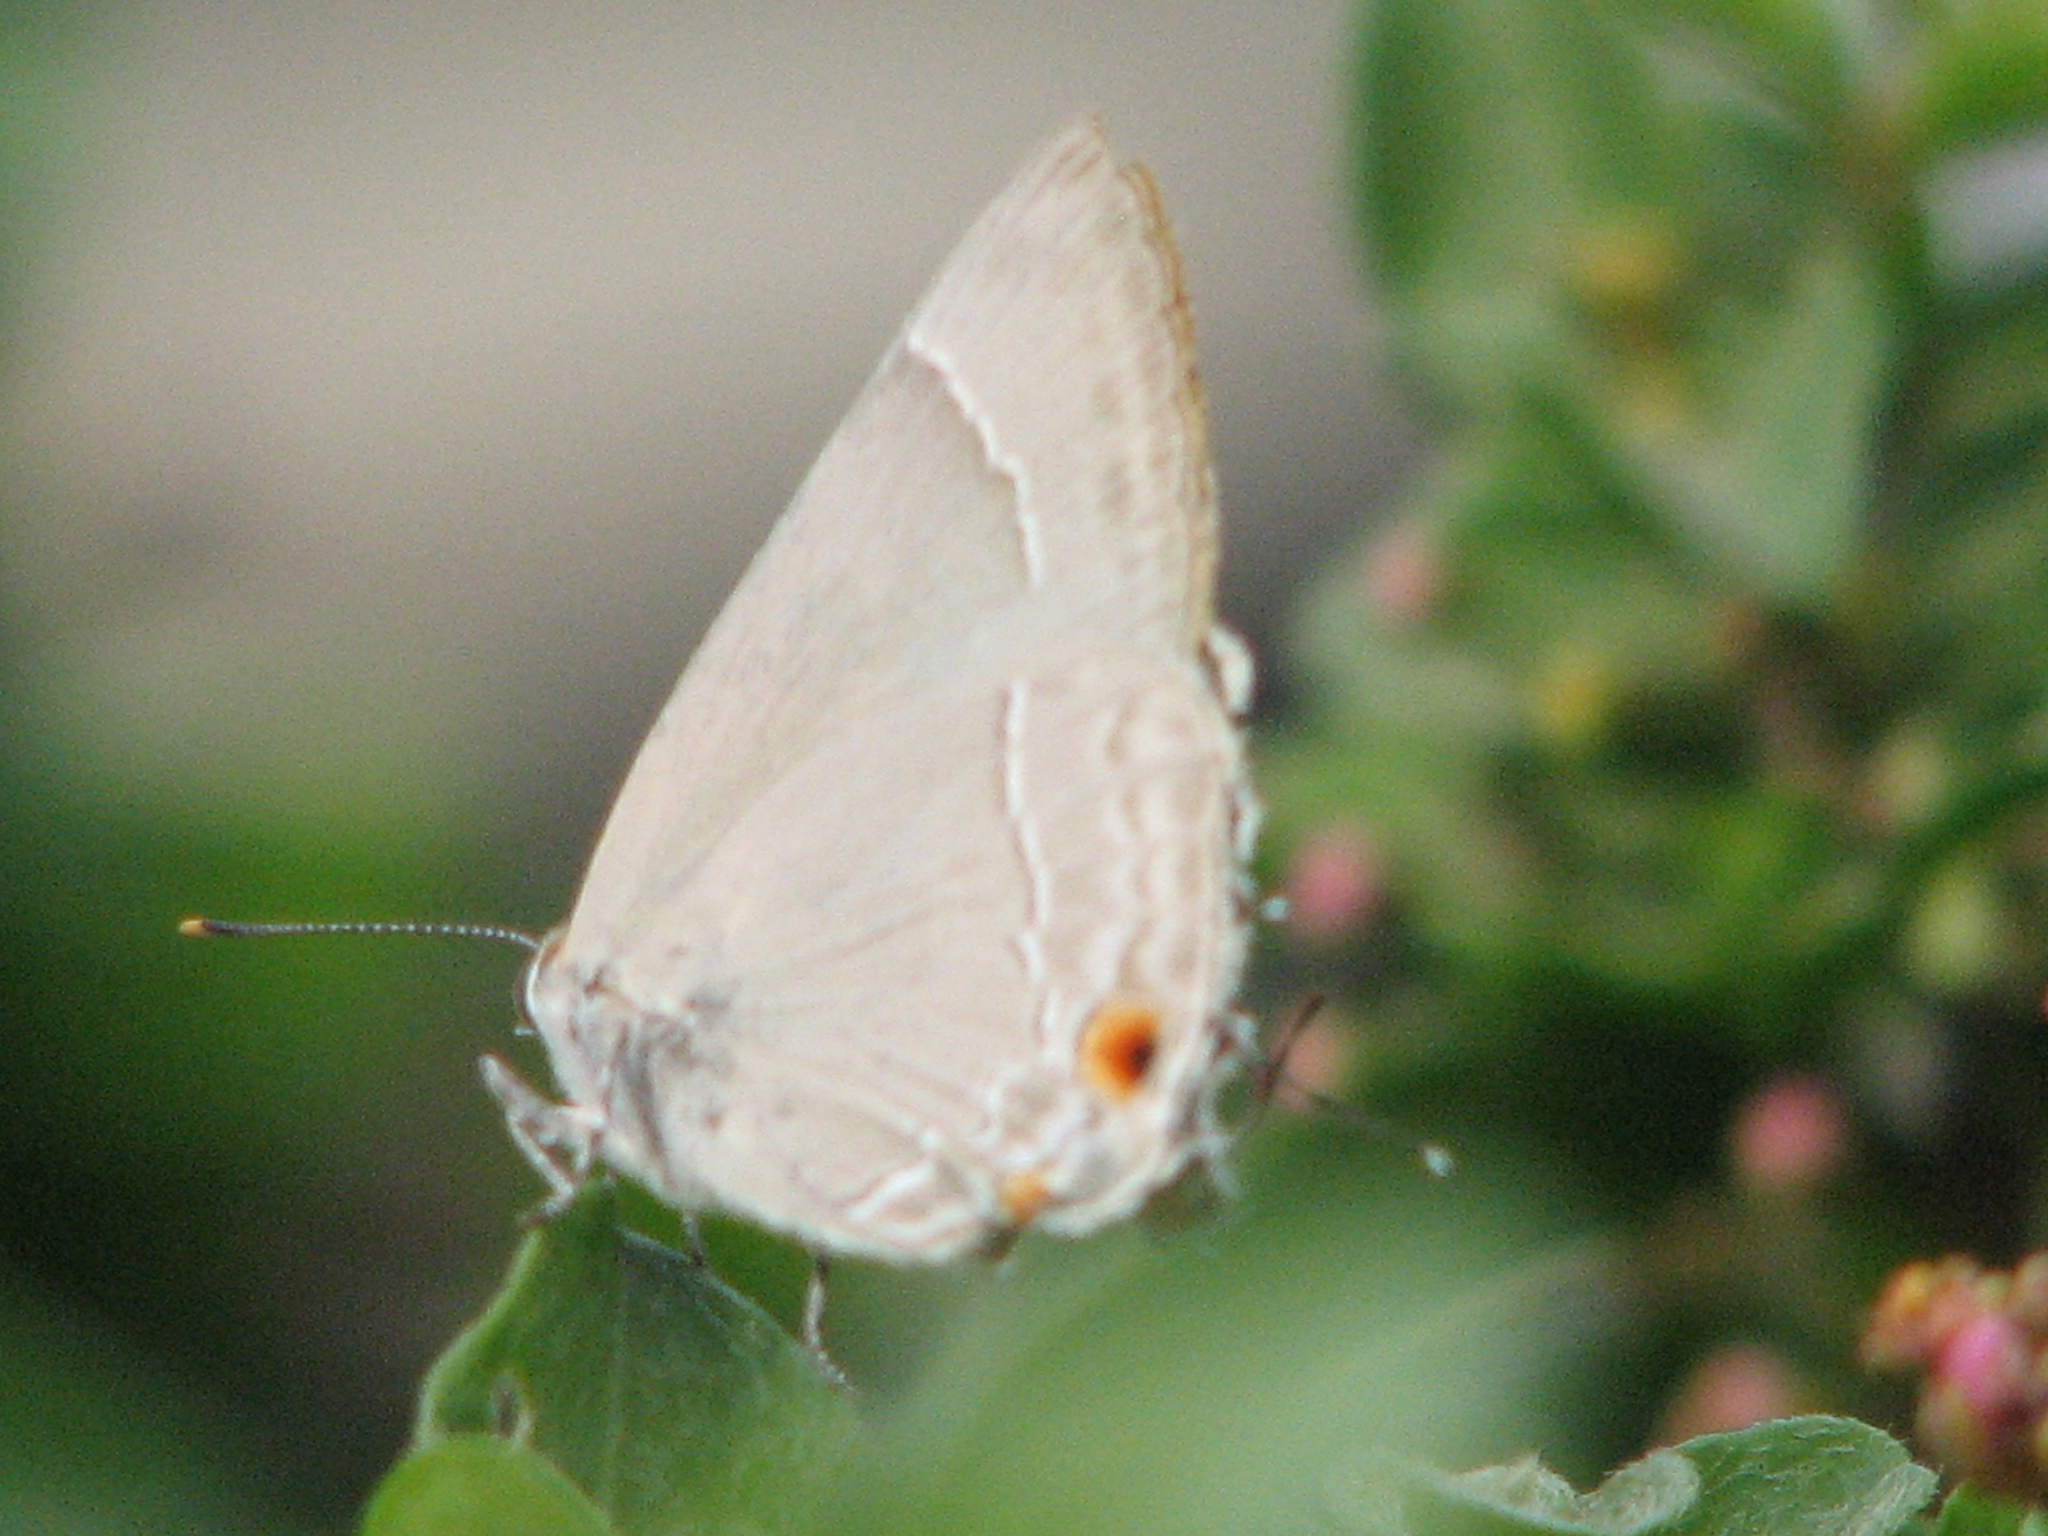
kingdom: Animalia
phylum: Arthropoda
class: Insecta
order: Lepidoptera
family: Lycaenidae
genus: Thecla
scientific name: Thecla marius
